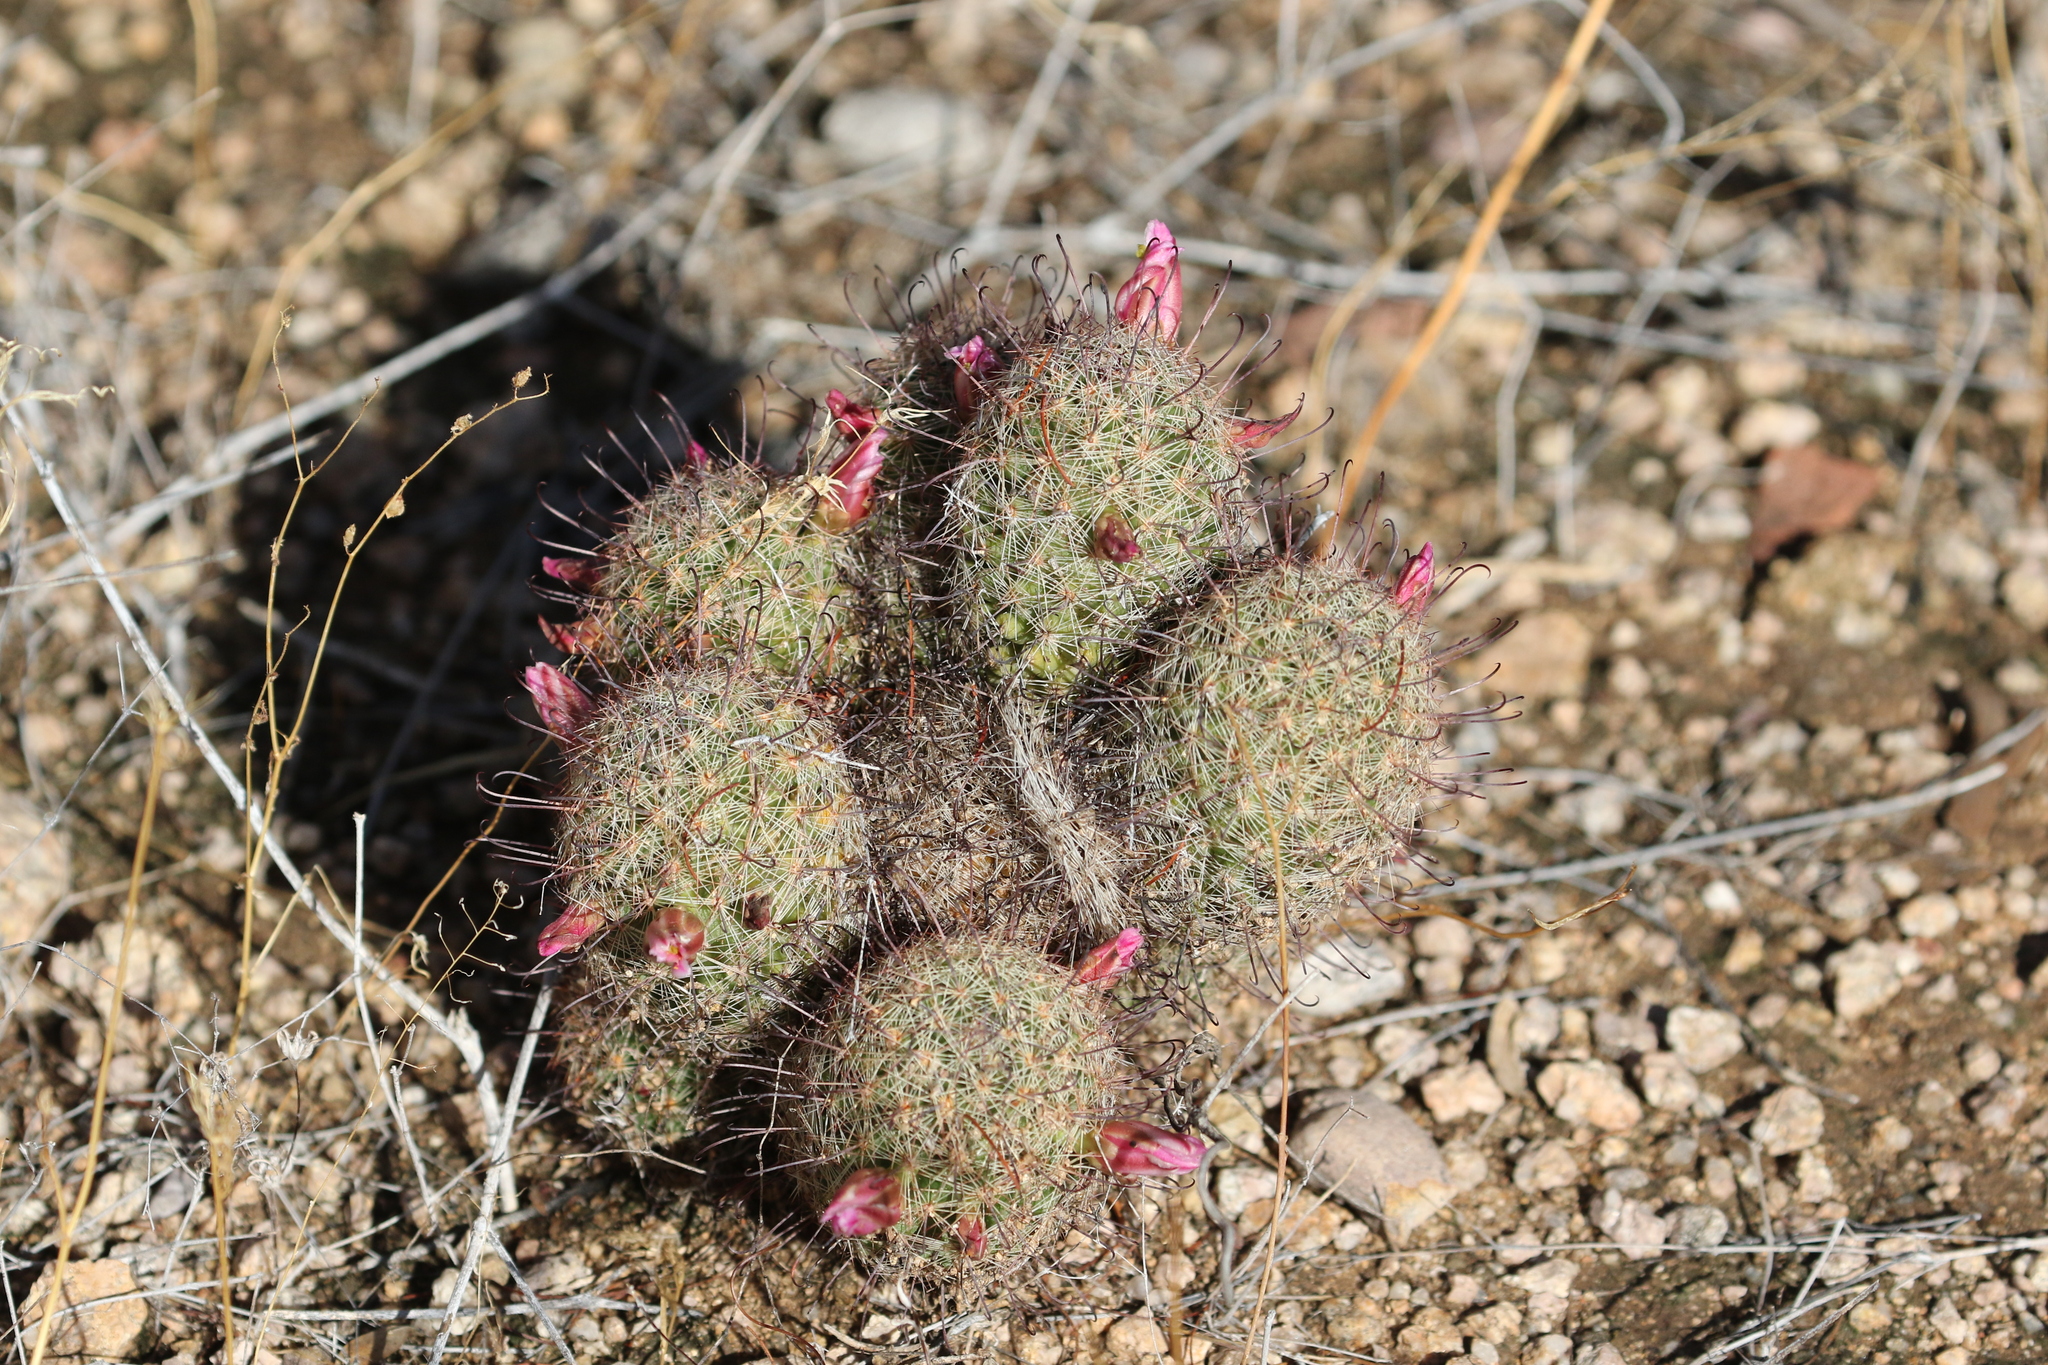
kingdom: Plantae
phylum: Tracheophyta
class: Magnoliopsida
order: Caryophyllales
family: Cactaceae
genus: Cochemiea
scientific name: Cochemiea grahamii
